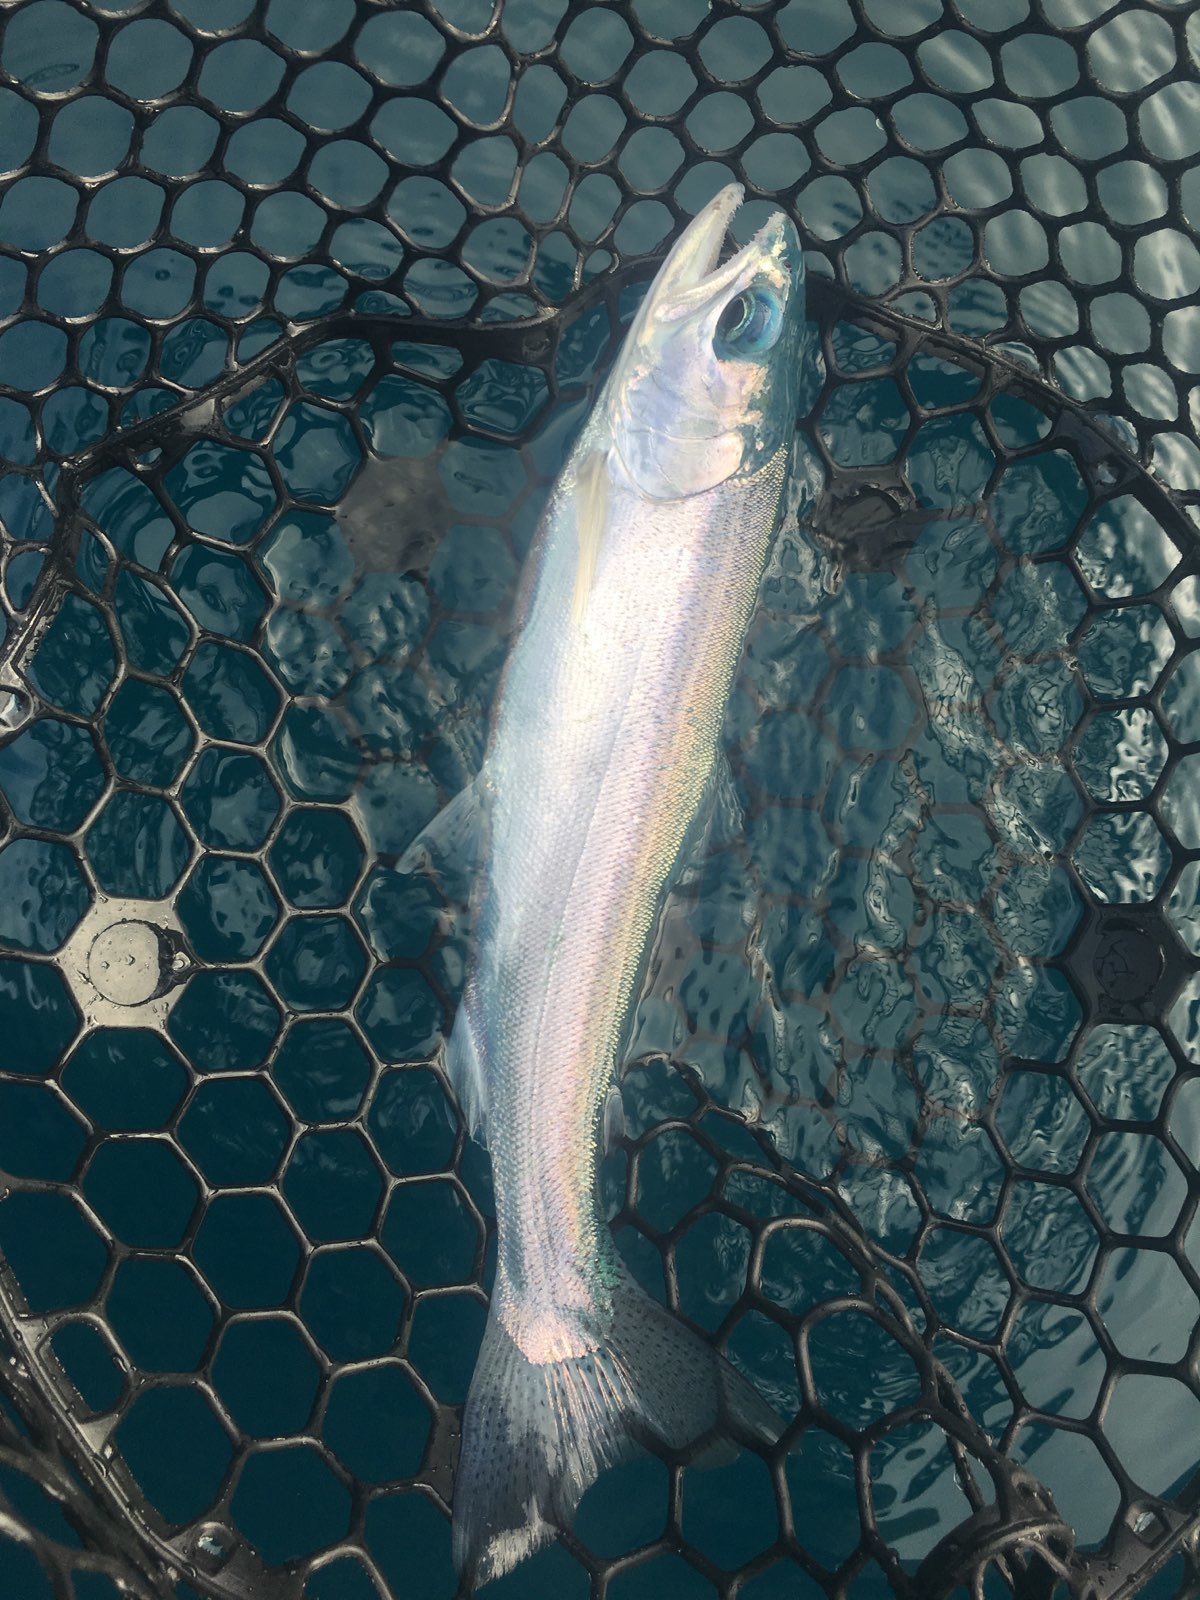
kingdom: Animalia
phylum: Chordata
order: Salmoniformes
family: Salmonidae
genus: Oncorhynchus
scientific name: Oncorhynchus mykiss
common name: Rainbow trout
